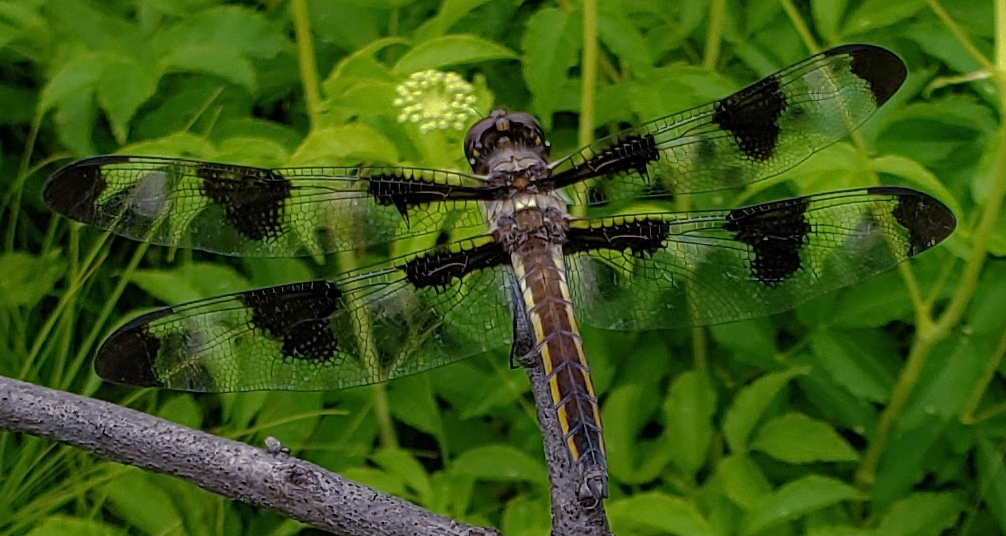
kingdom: Animalia
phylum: Arthropoda
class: Insecta
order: Odonata
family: Libellulidae
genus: Libellula
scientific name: Libellula pulchella
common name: Twelve-spotted skimmer
